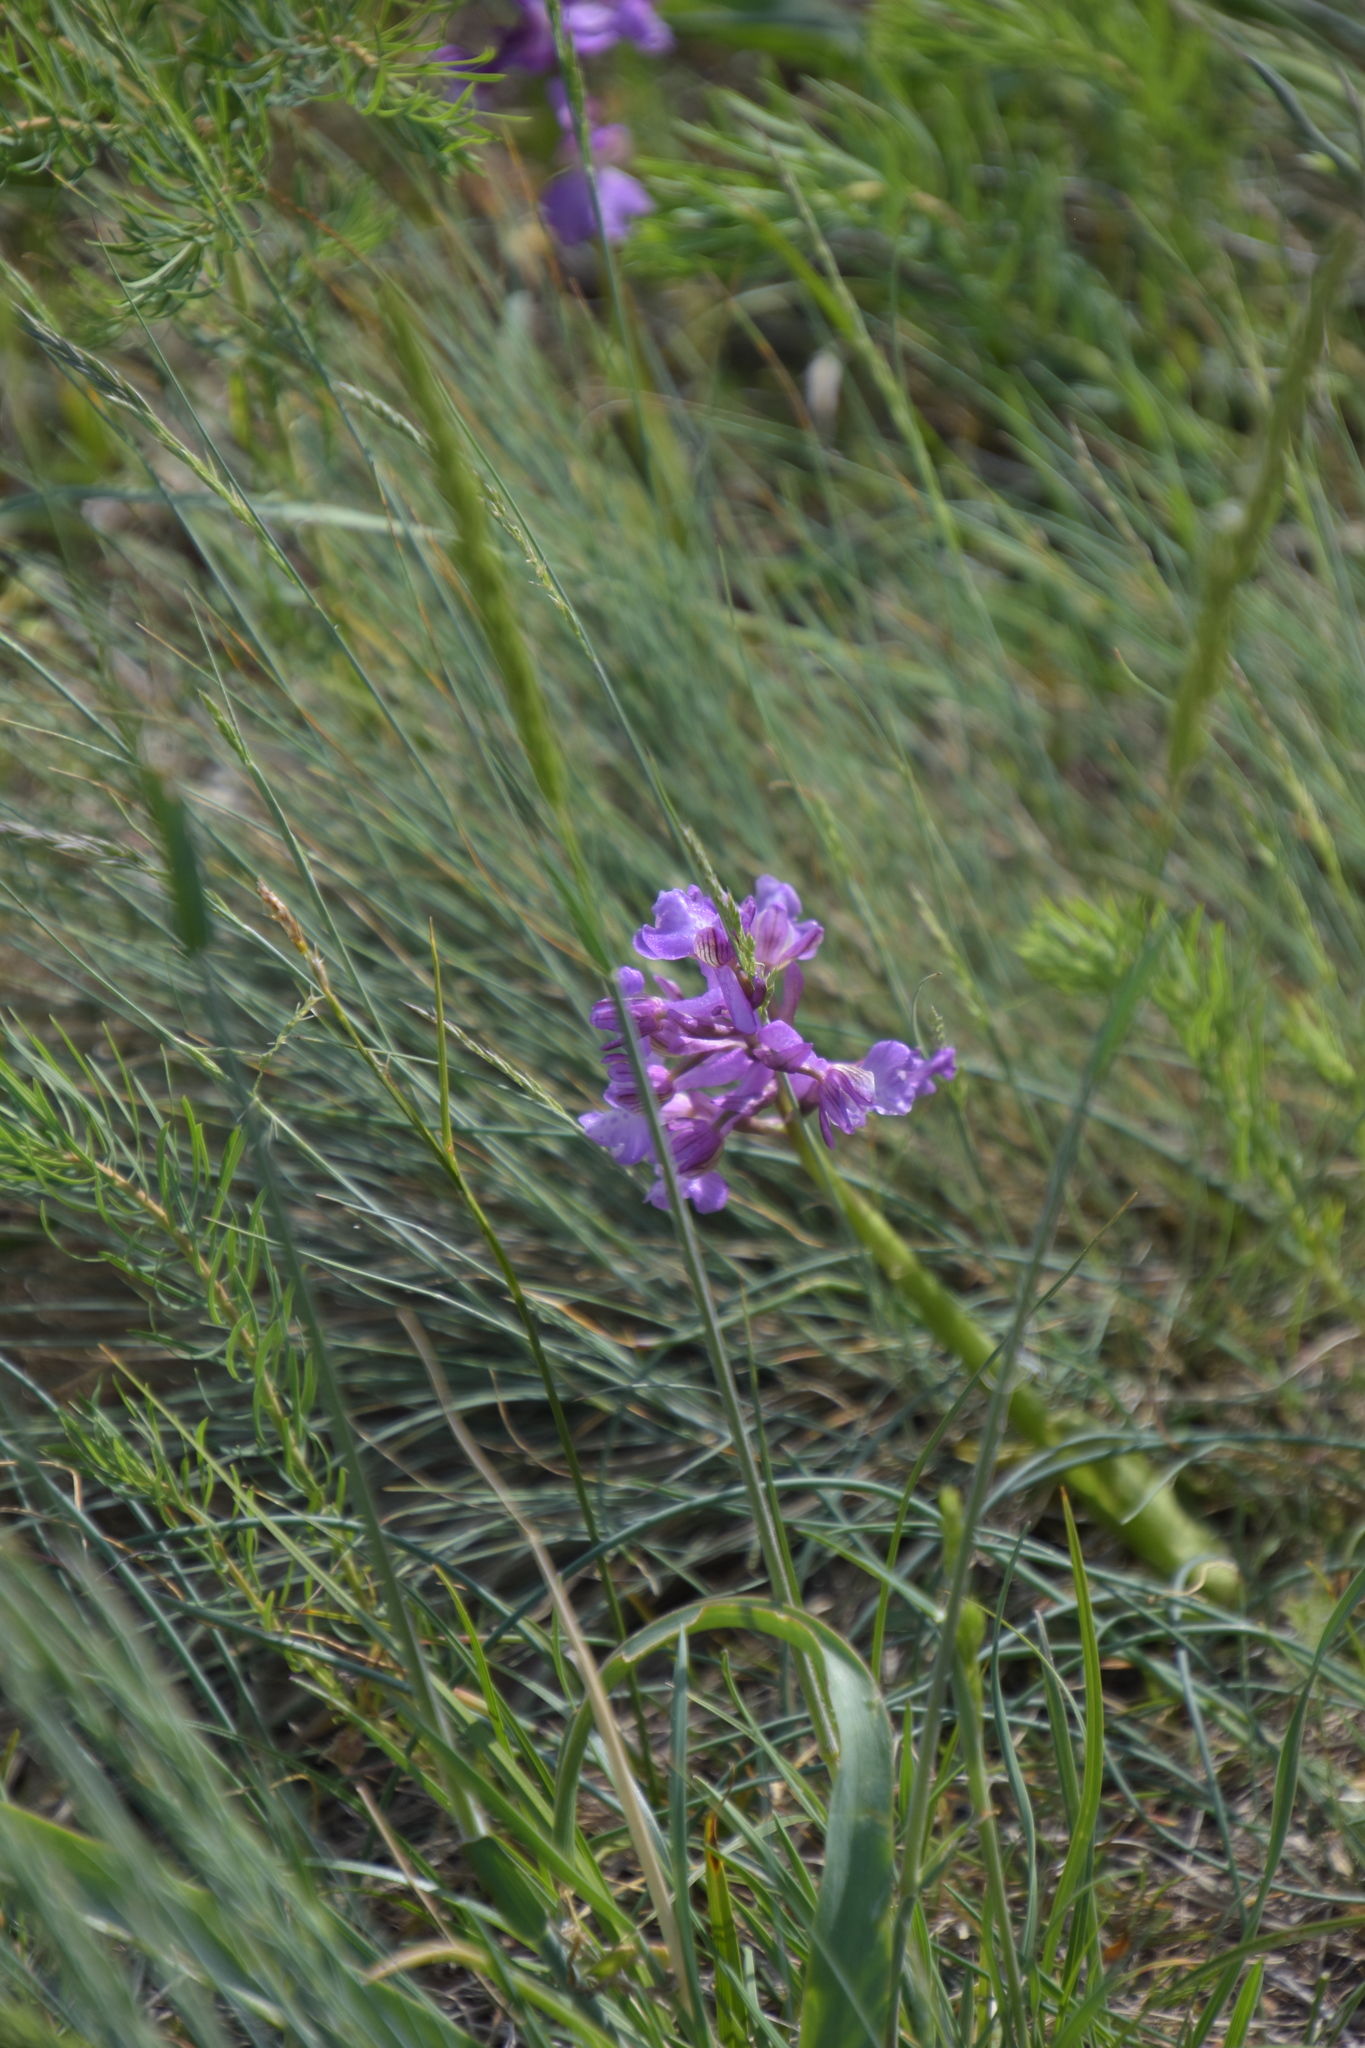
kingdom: Plantae
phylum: Tracheophyta
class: Liliopsida
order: Asparagales
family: Orchidaceae
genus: Anacamptis
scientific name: Anacamptis morio
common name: Green-winged orchid
